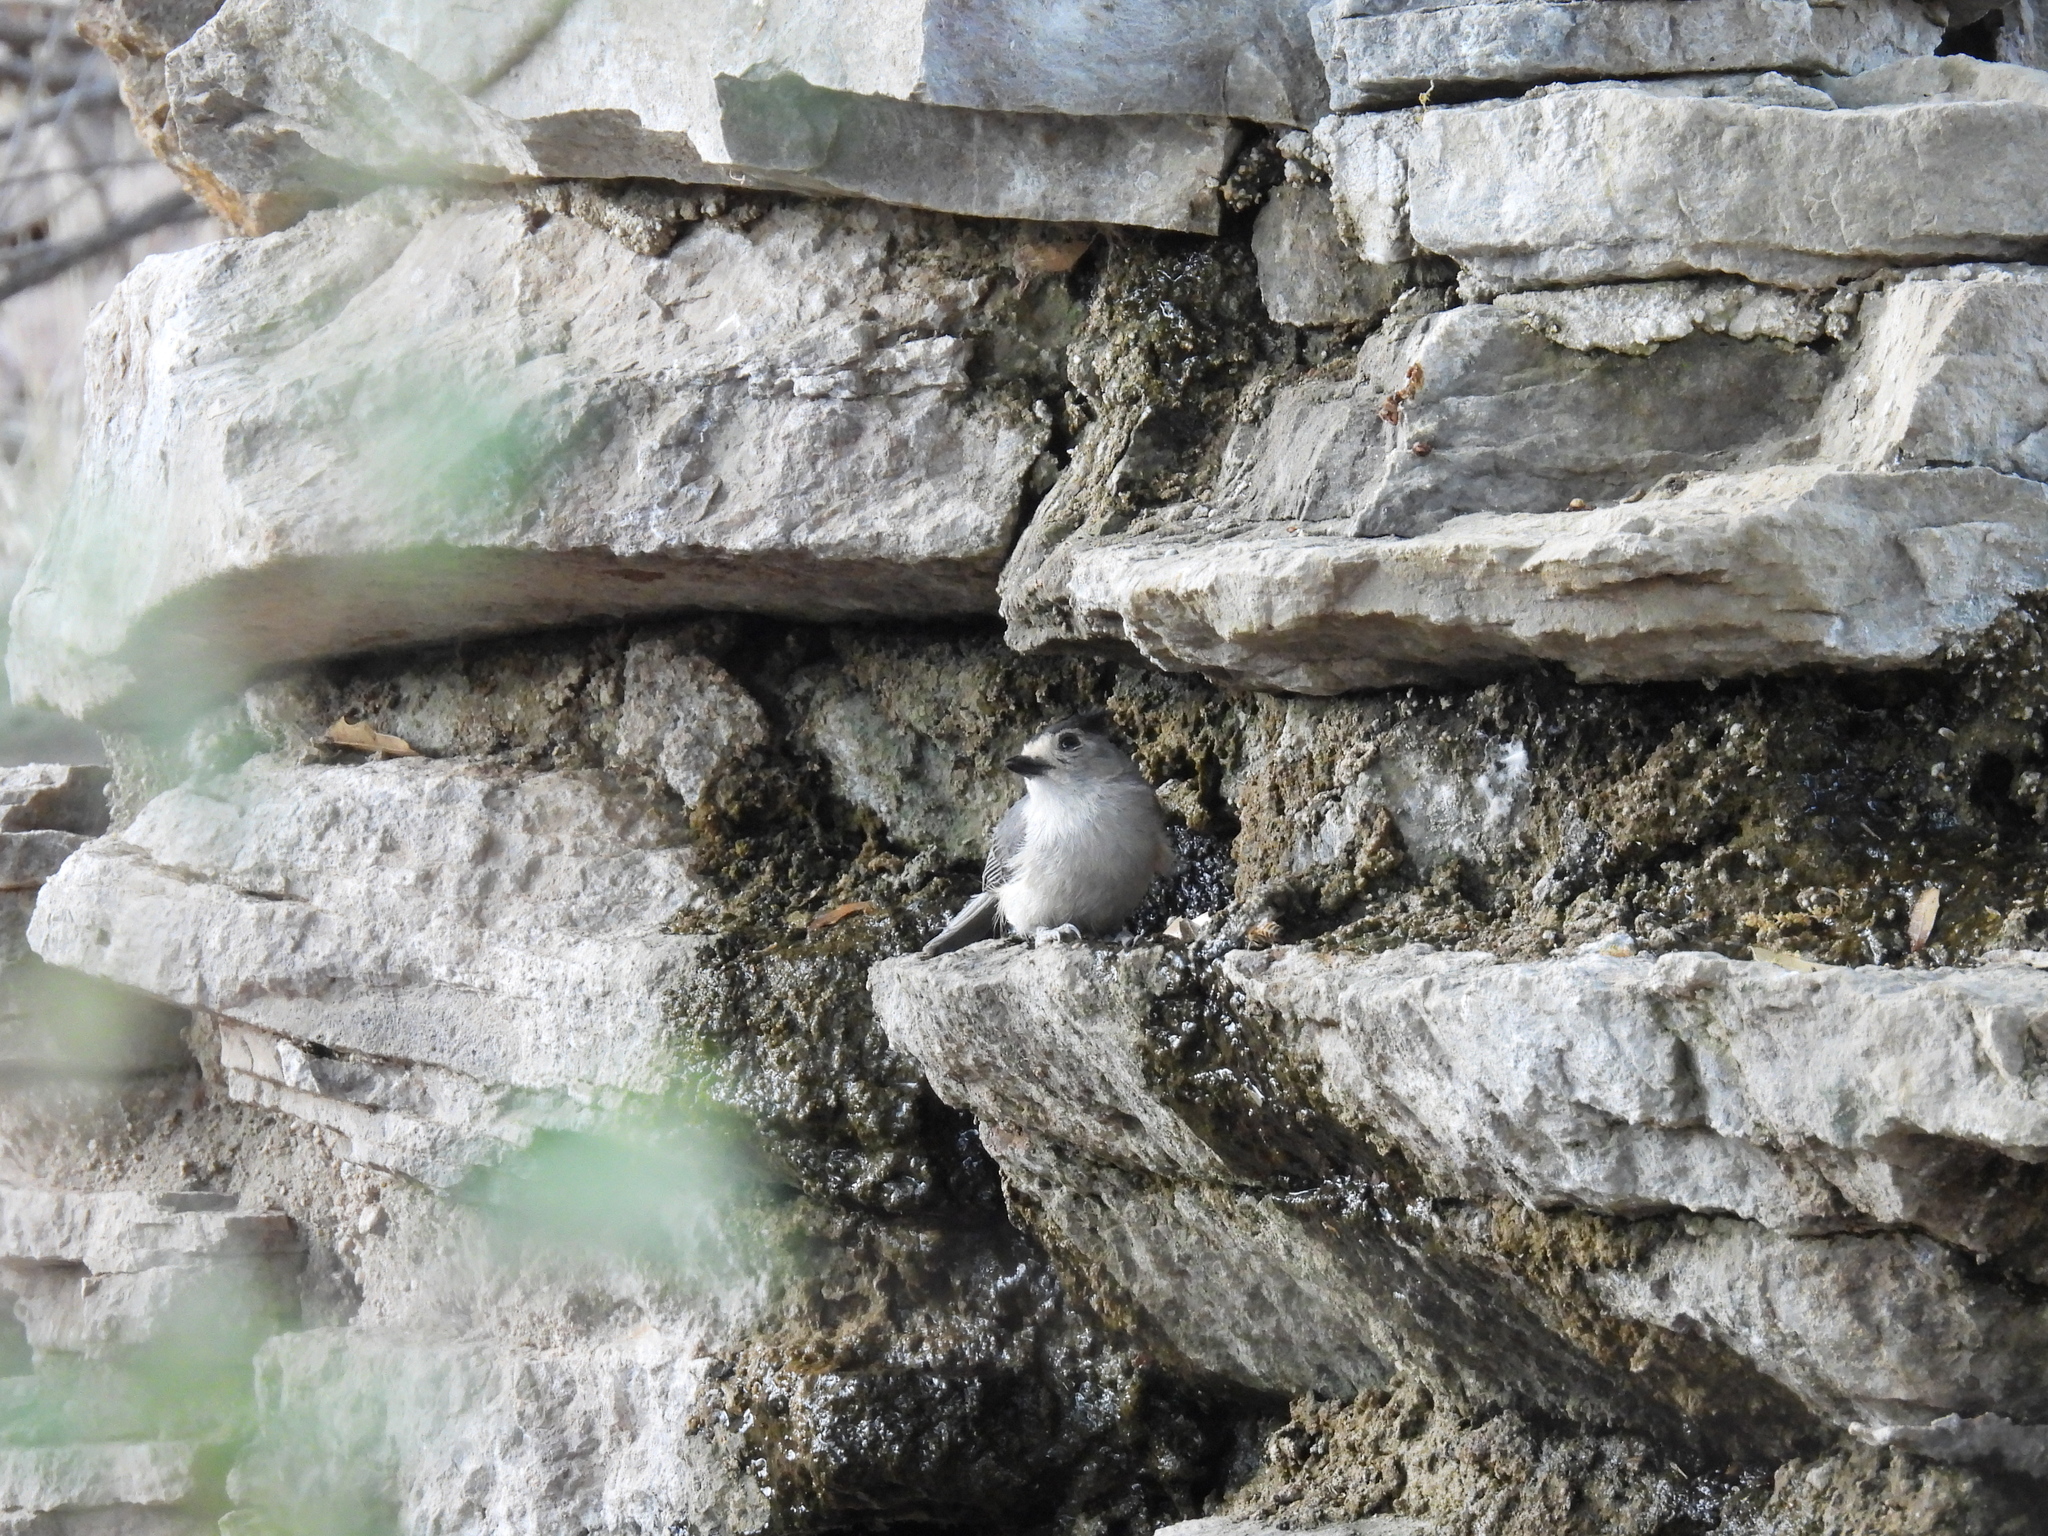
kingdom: Animalia
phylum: Chordata
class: Aves
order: Passeriformes
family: Paridae
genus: Baeolophus
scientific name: Baeolophus atricristatus
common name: Black-crested titmouse
